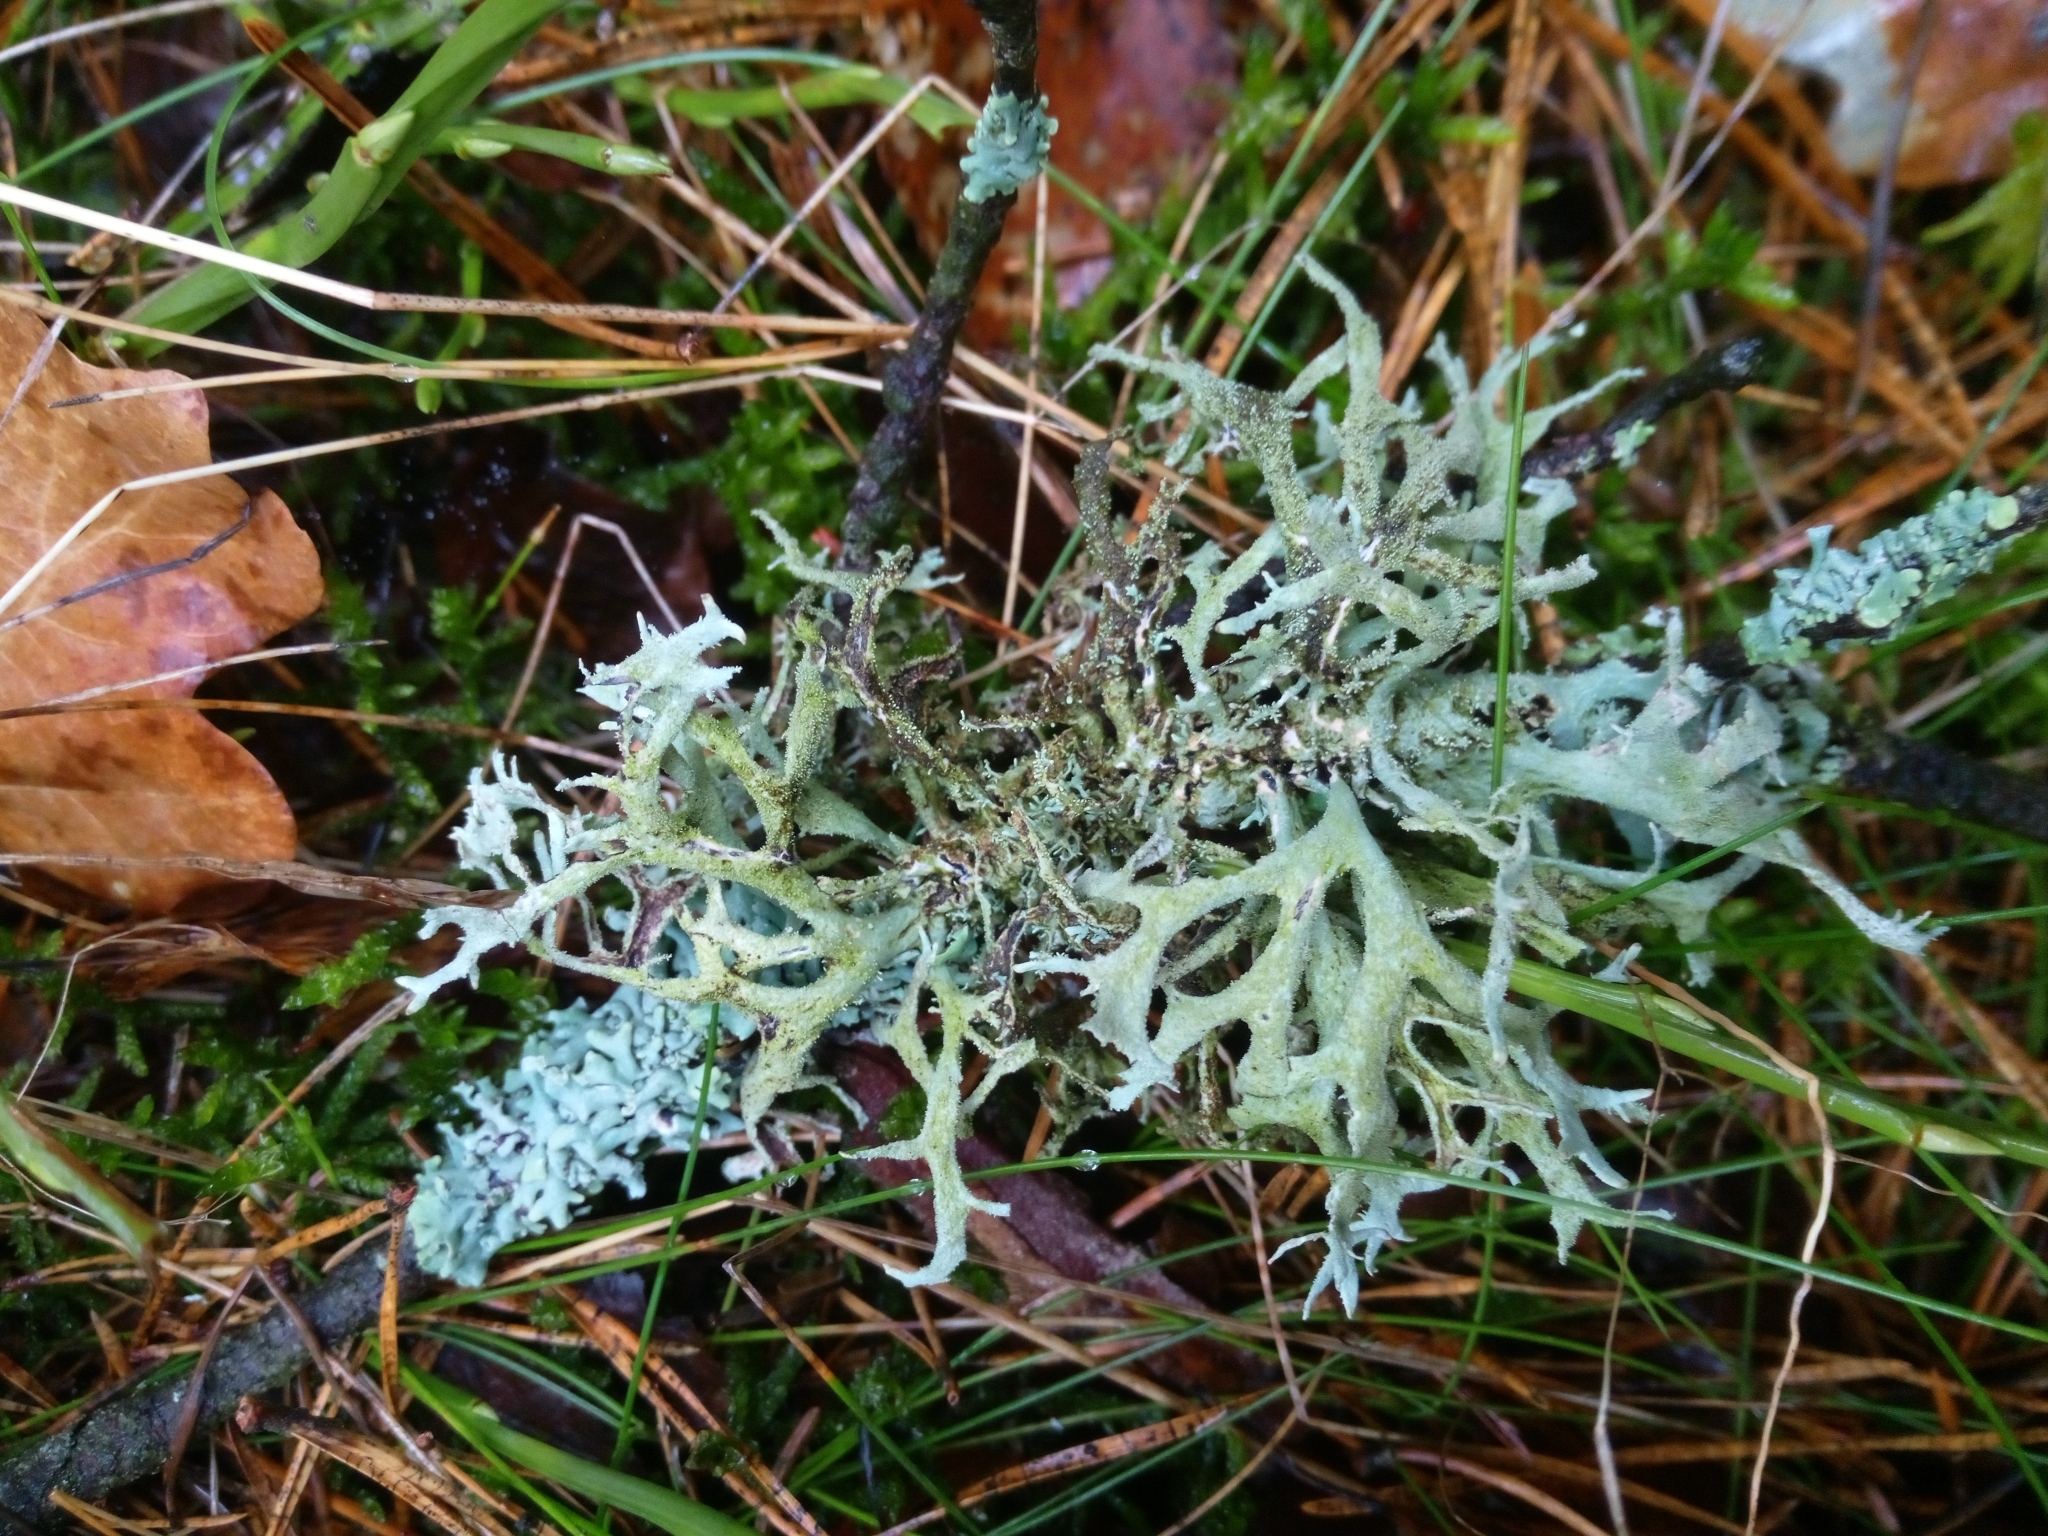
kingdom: Fungi
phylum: Ascomycota
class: Lecanoromycetes
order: Lecanorales
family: Parmeliaceae
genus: Pseudevernia
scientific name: Pseudevernia furfuracea
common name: Tree moss
